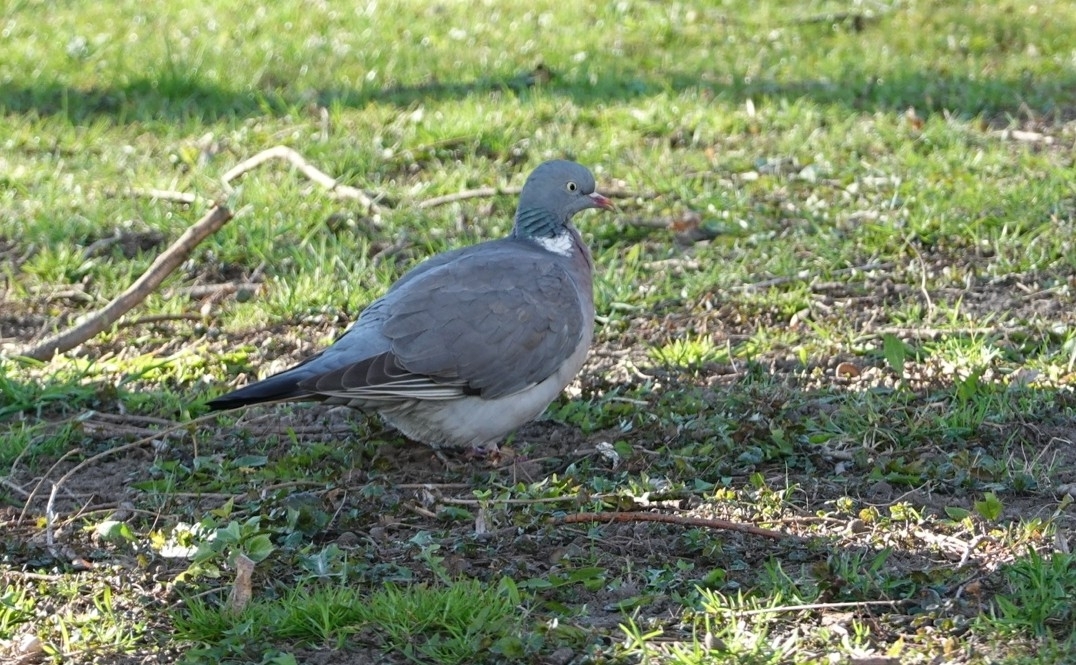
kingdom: Animalia
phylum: Chordata
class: Aves
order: Columbiformes
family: Columbidae
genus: Columba
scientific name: Columba palumbus
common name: Common wood pigeon
